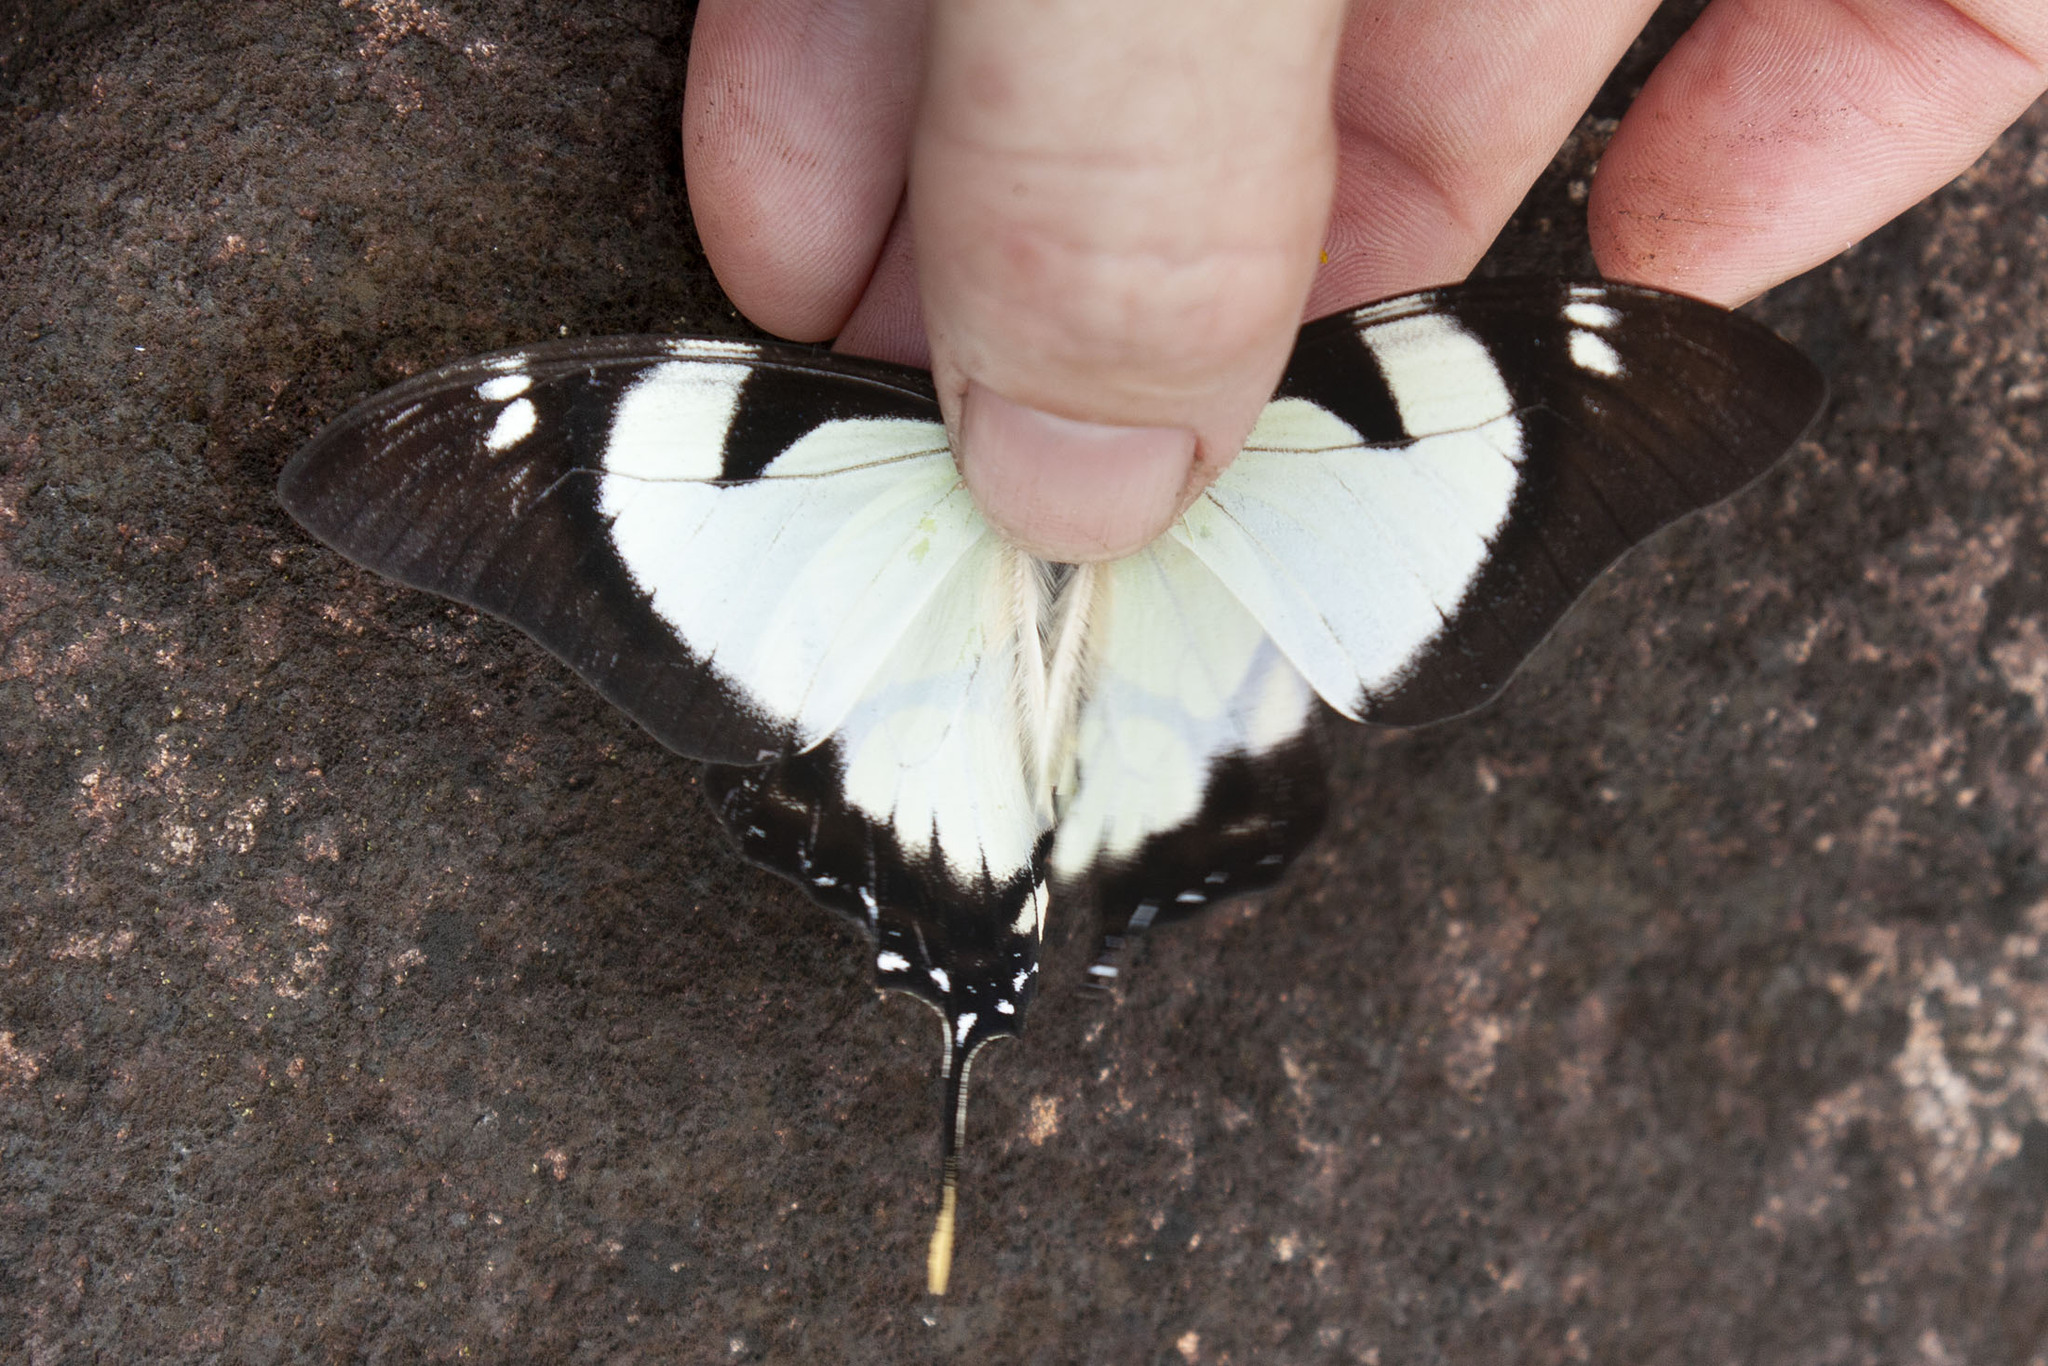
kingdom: Animalia
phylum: Arthropoda
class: Insecta
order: Lepidoptera
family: Papilionidae
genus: Eurytides
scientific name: Eurytides dolicaon
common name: Dolicaon kite swallowtail
